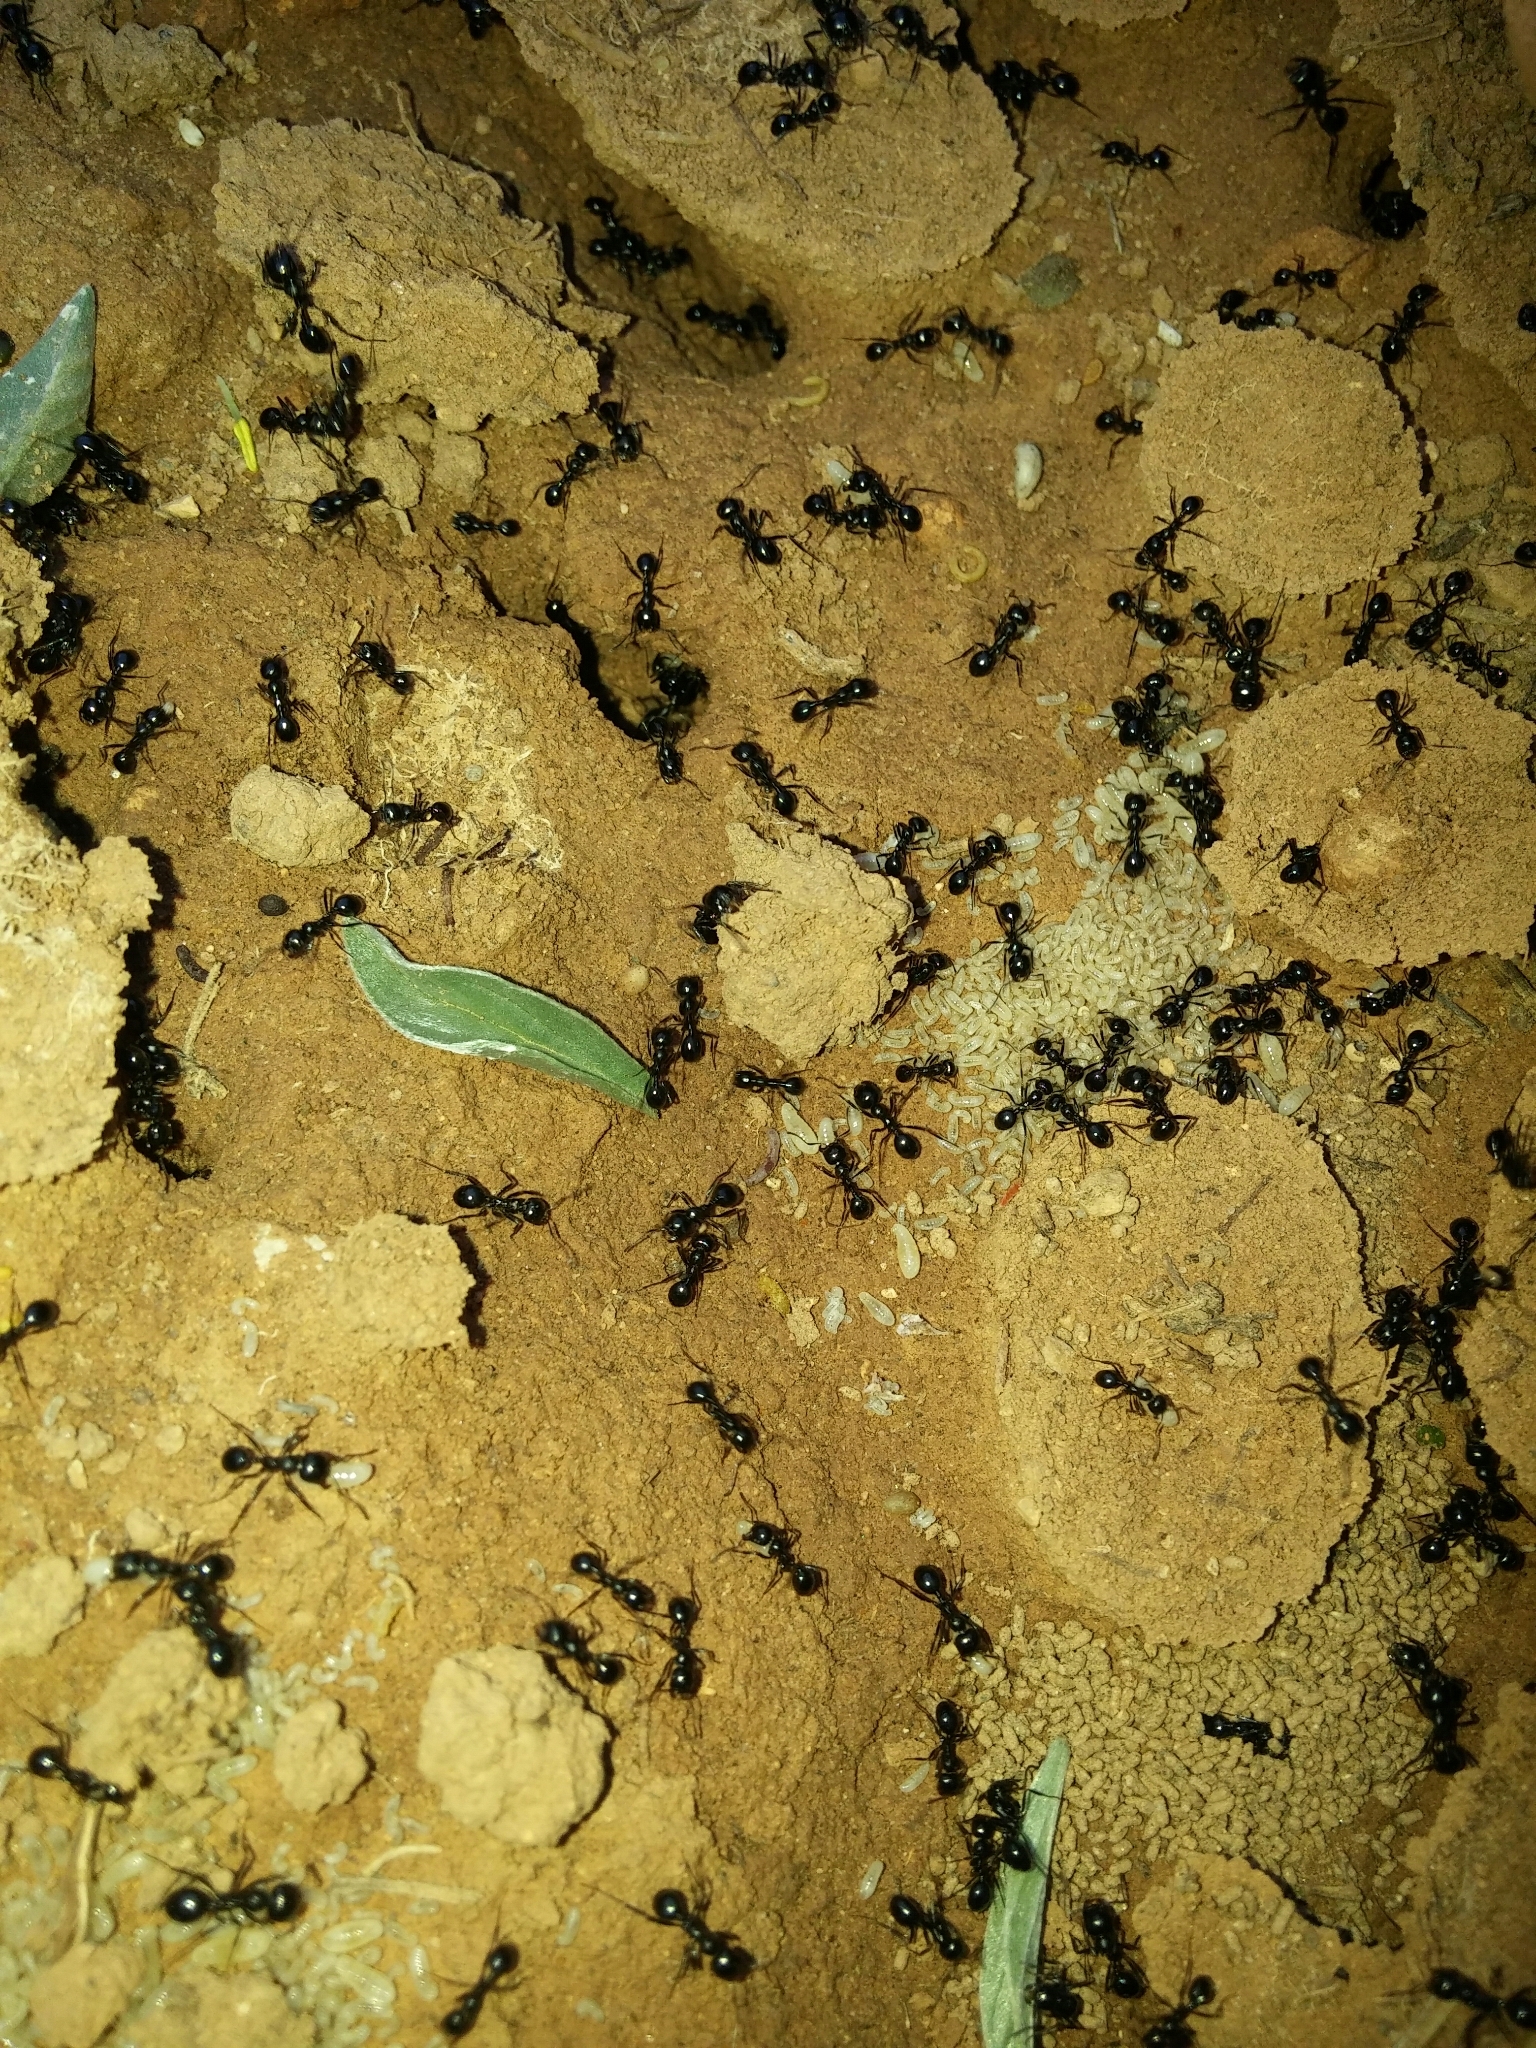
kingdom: Animalia
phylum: Arthropoda
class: Insecta
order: Hymenoptera
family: Formicidae
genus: Messor
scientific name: Messor bouvieri
